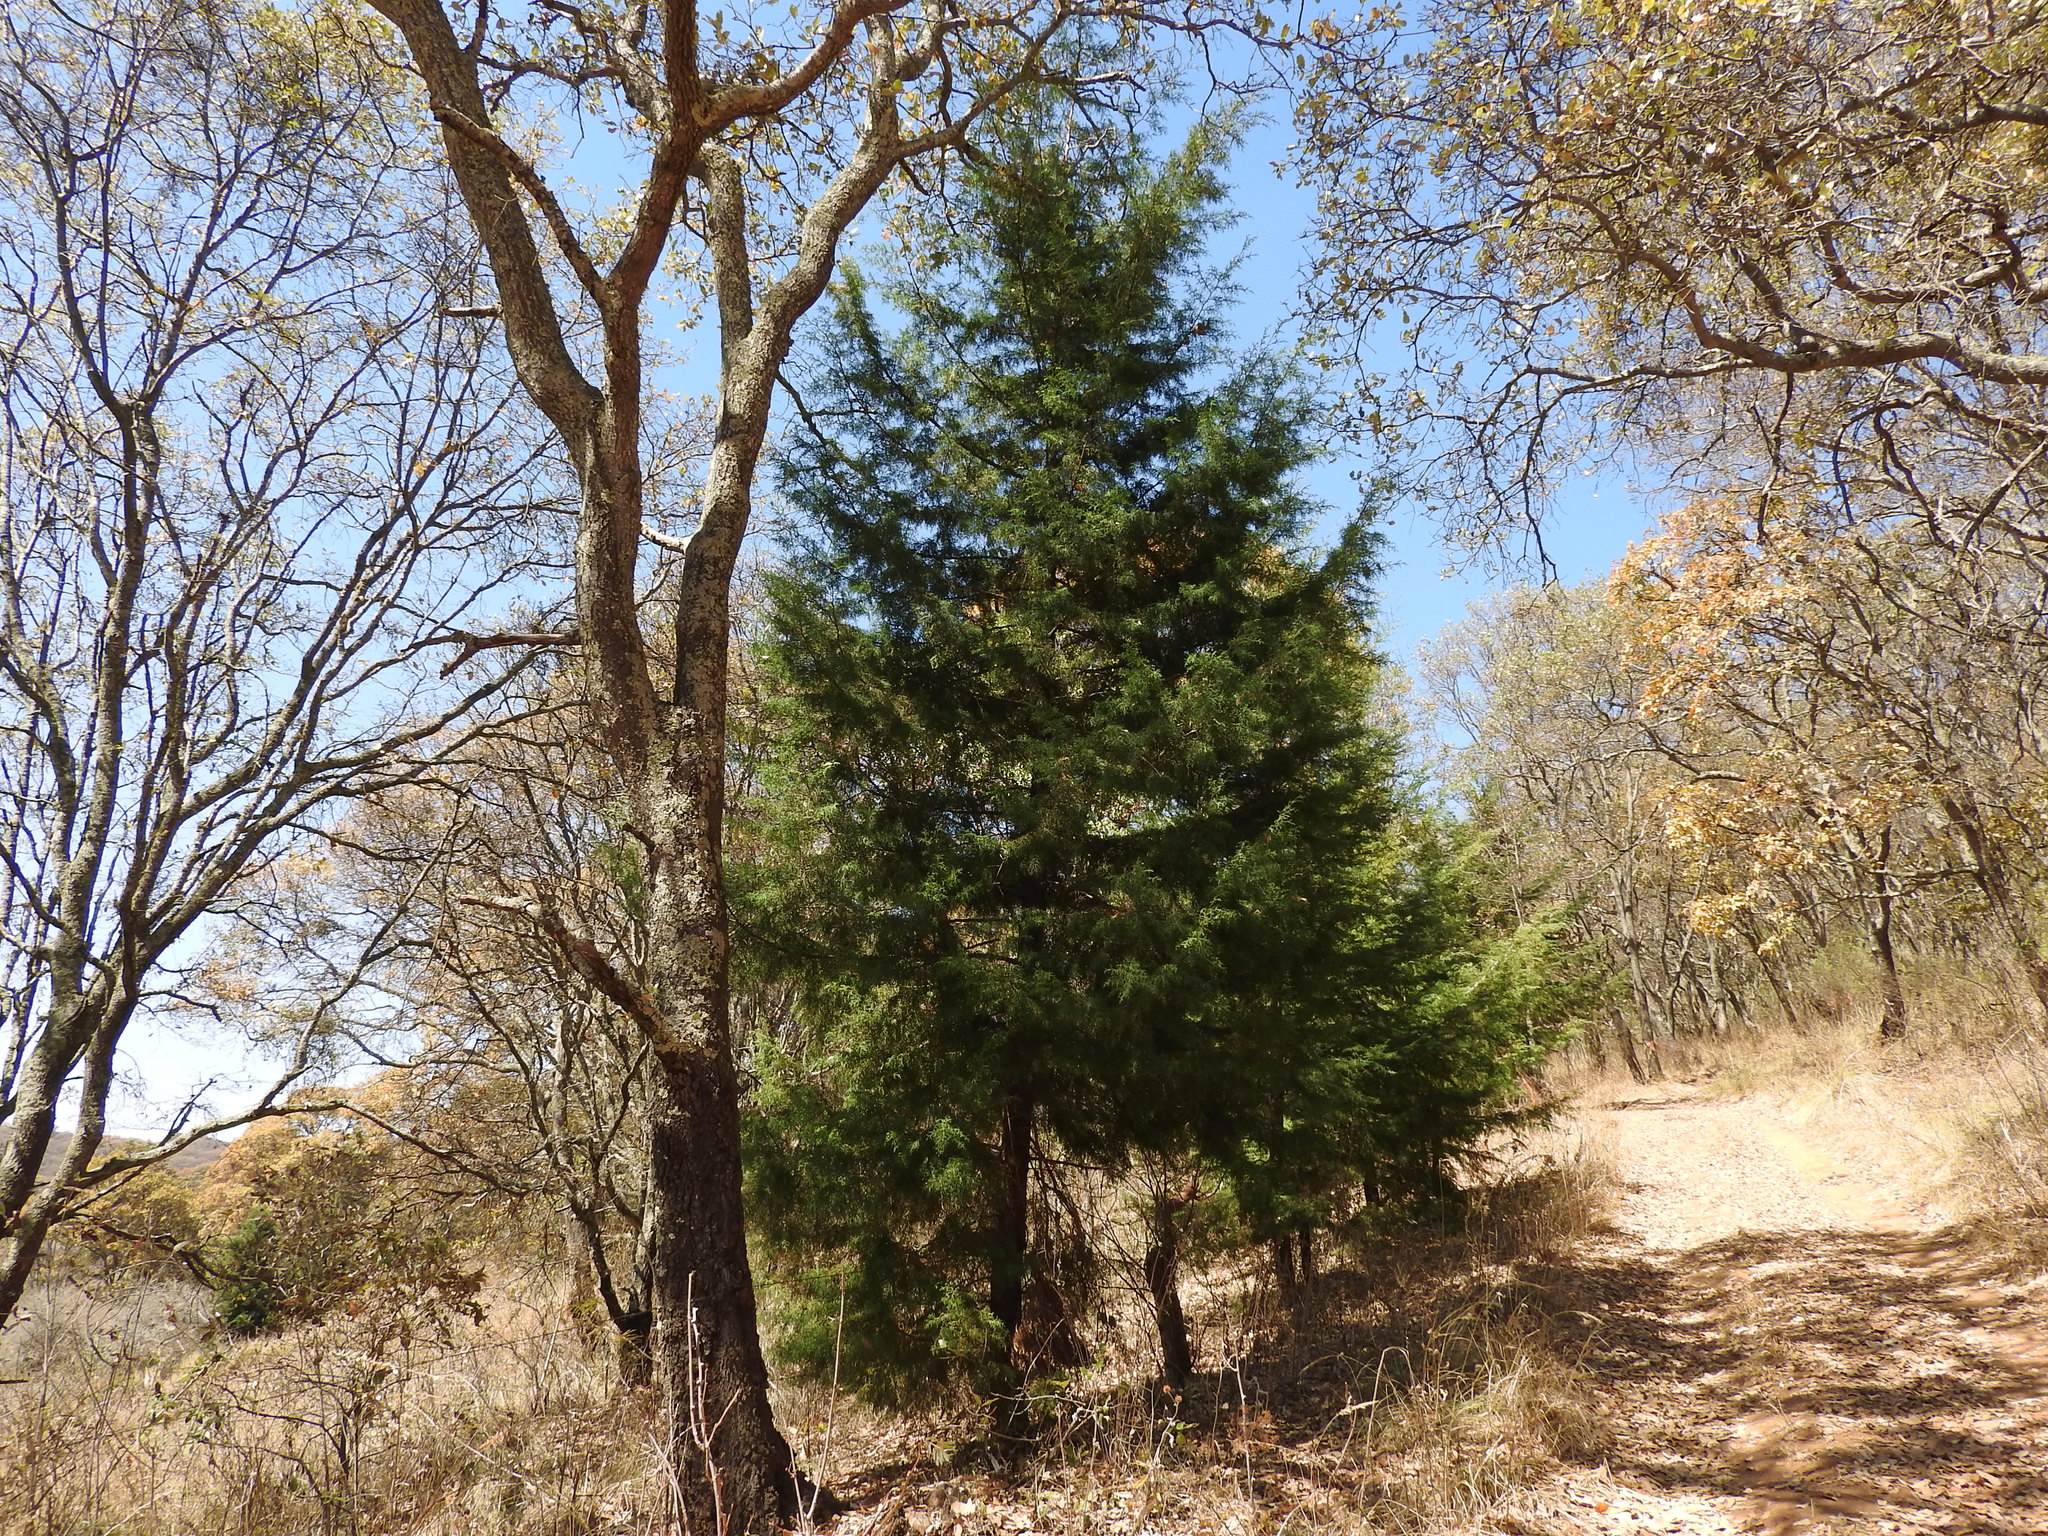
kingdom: Plantae
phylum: Tracheophyta
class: Pinopsida
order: Pinales
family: Cupressaceae
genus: Cupressus
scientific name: Cupressus lusitanica
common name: Mexican cypress
